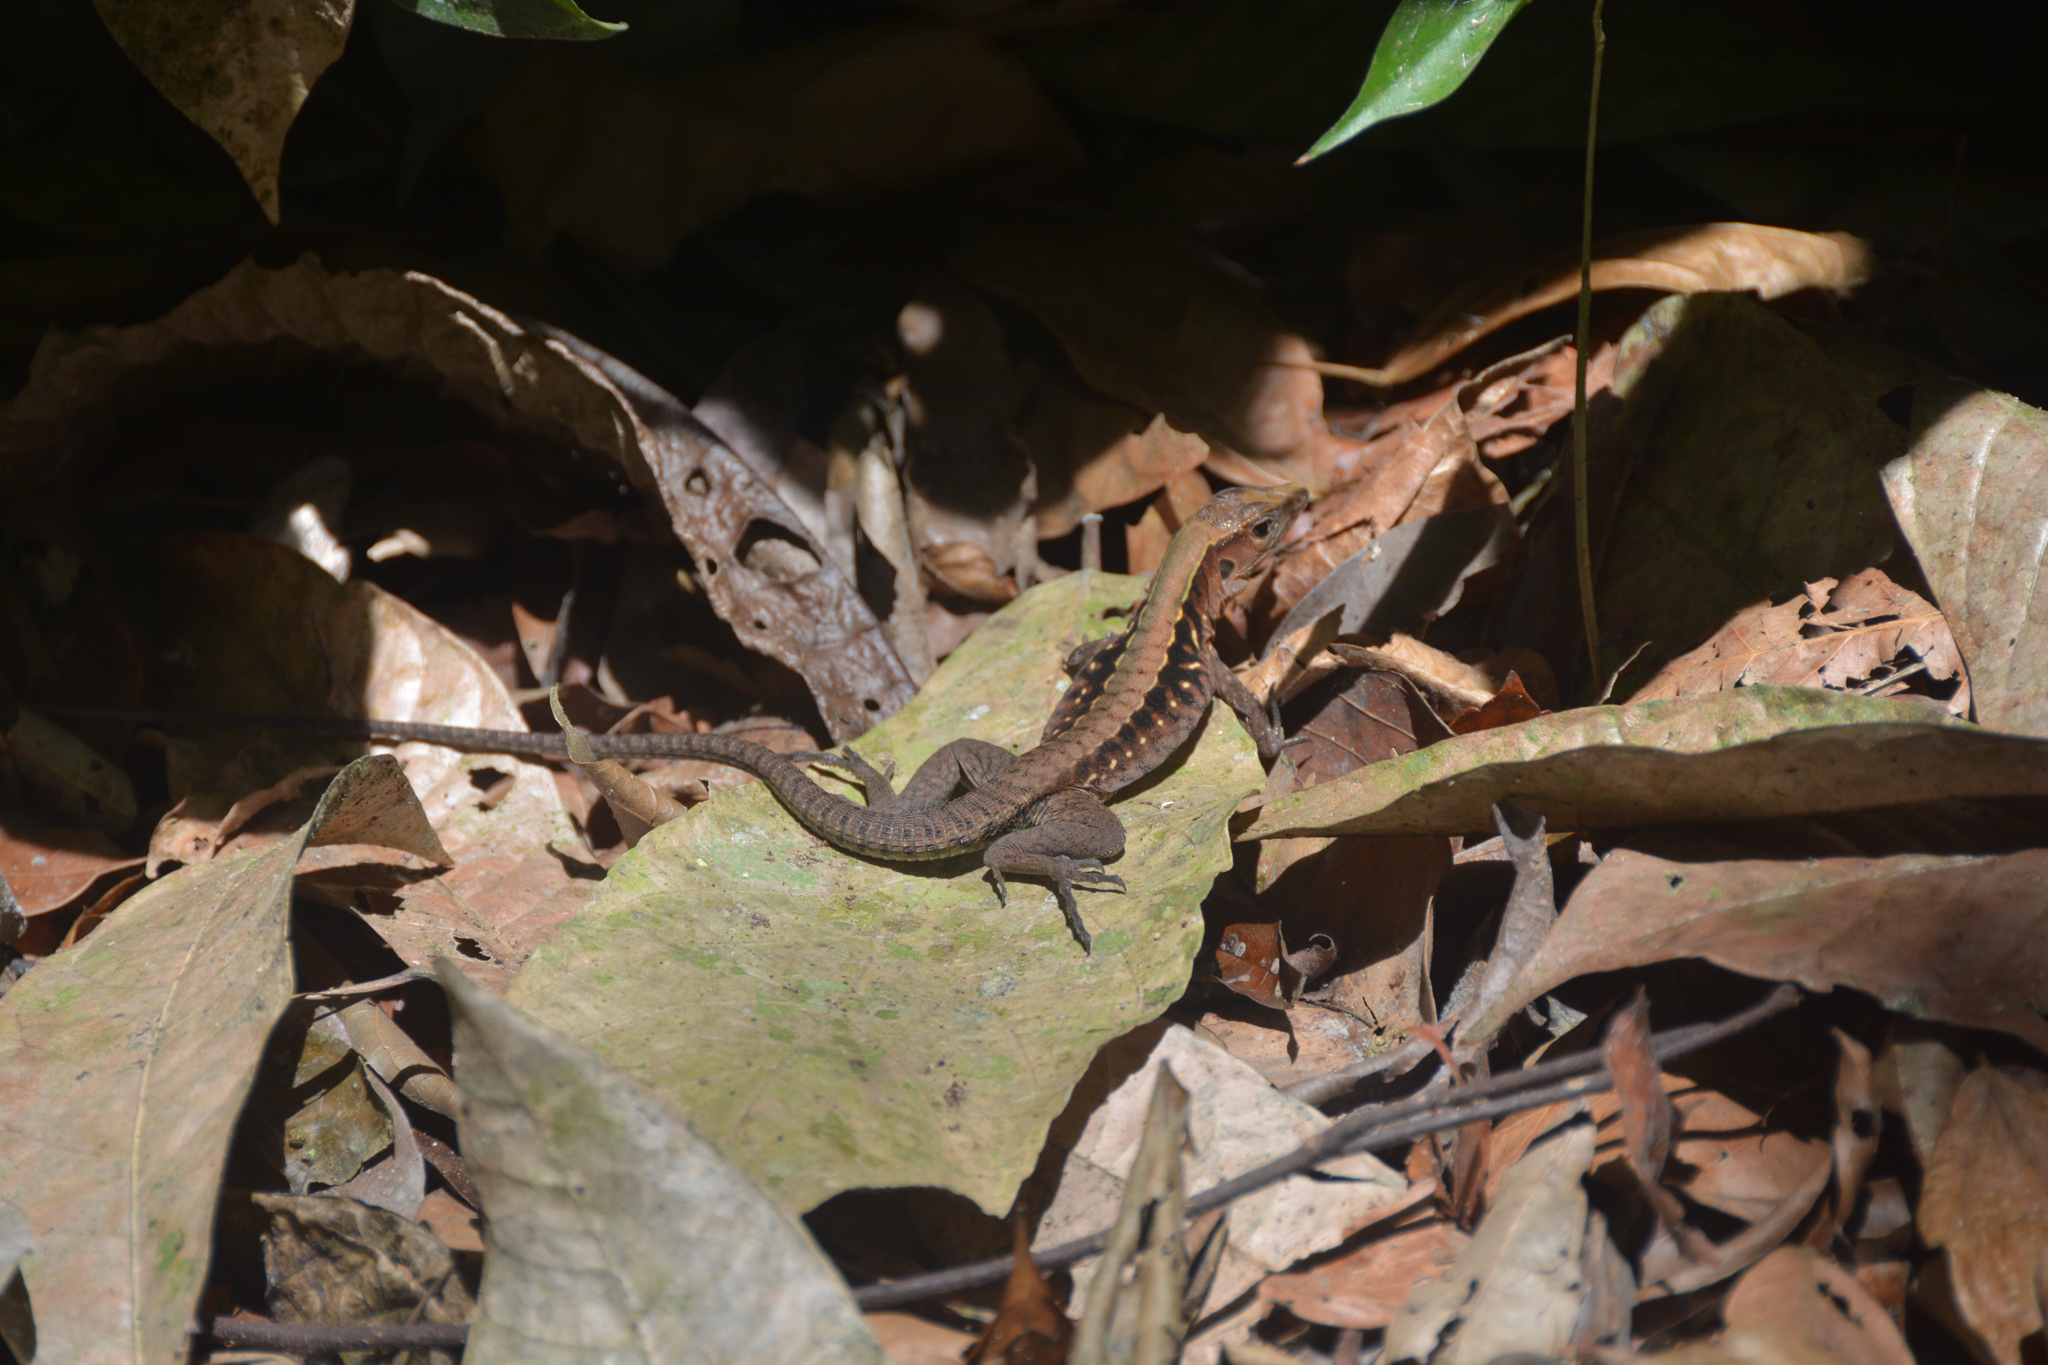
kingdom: Animalia
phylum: Chordata
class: Squamata
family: Teiidae
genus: Holcosus
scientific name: Holcosus leptophrys
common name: Delicate ameiva
